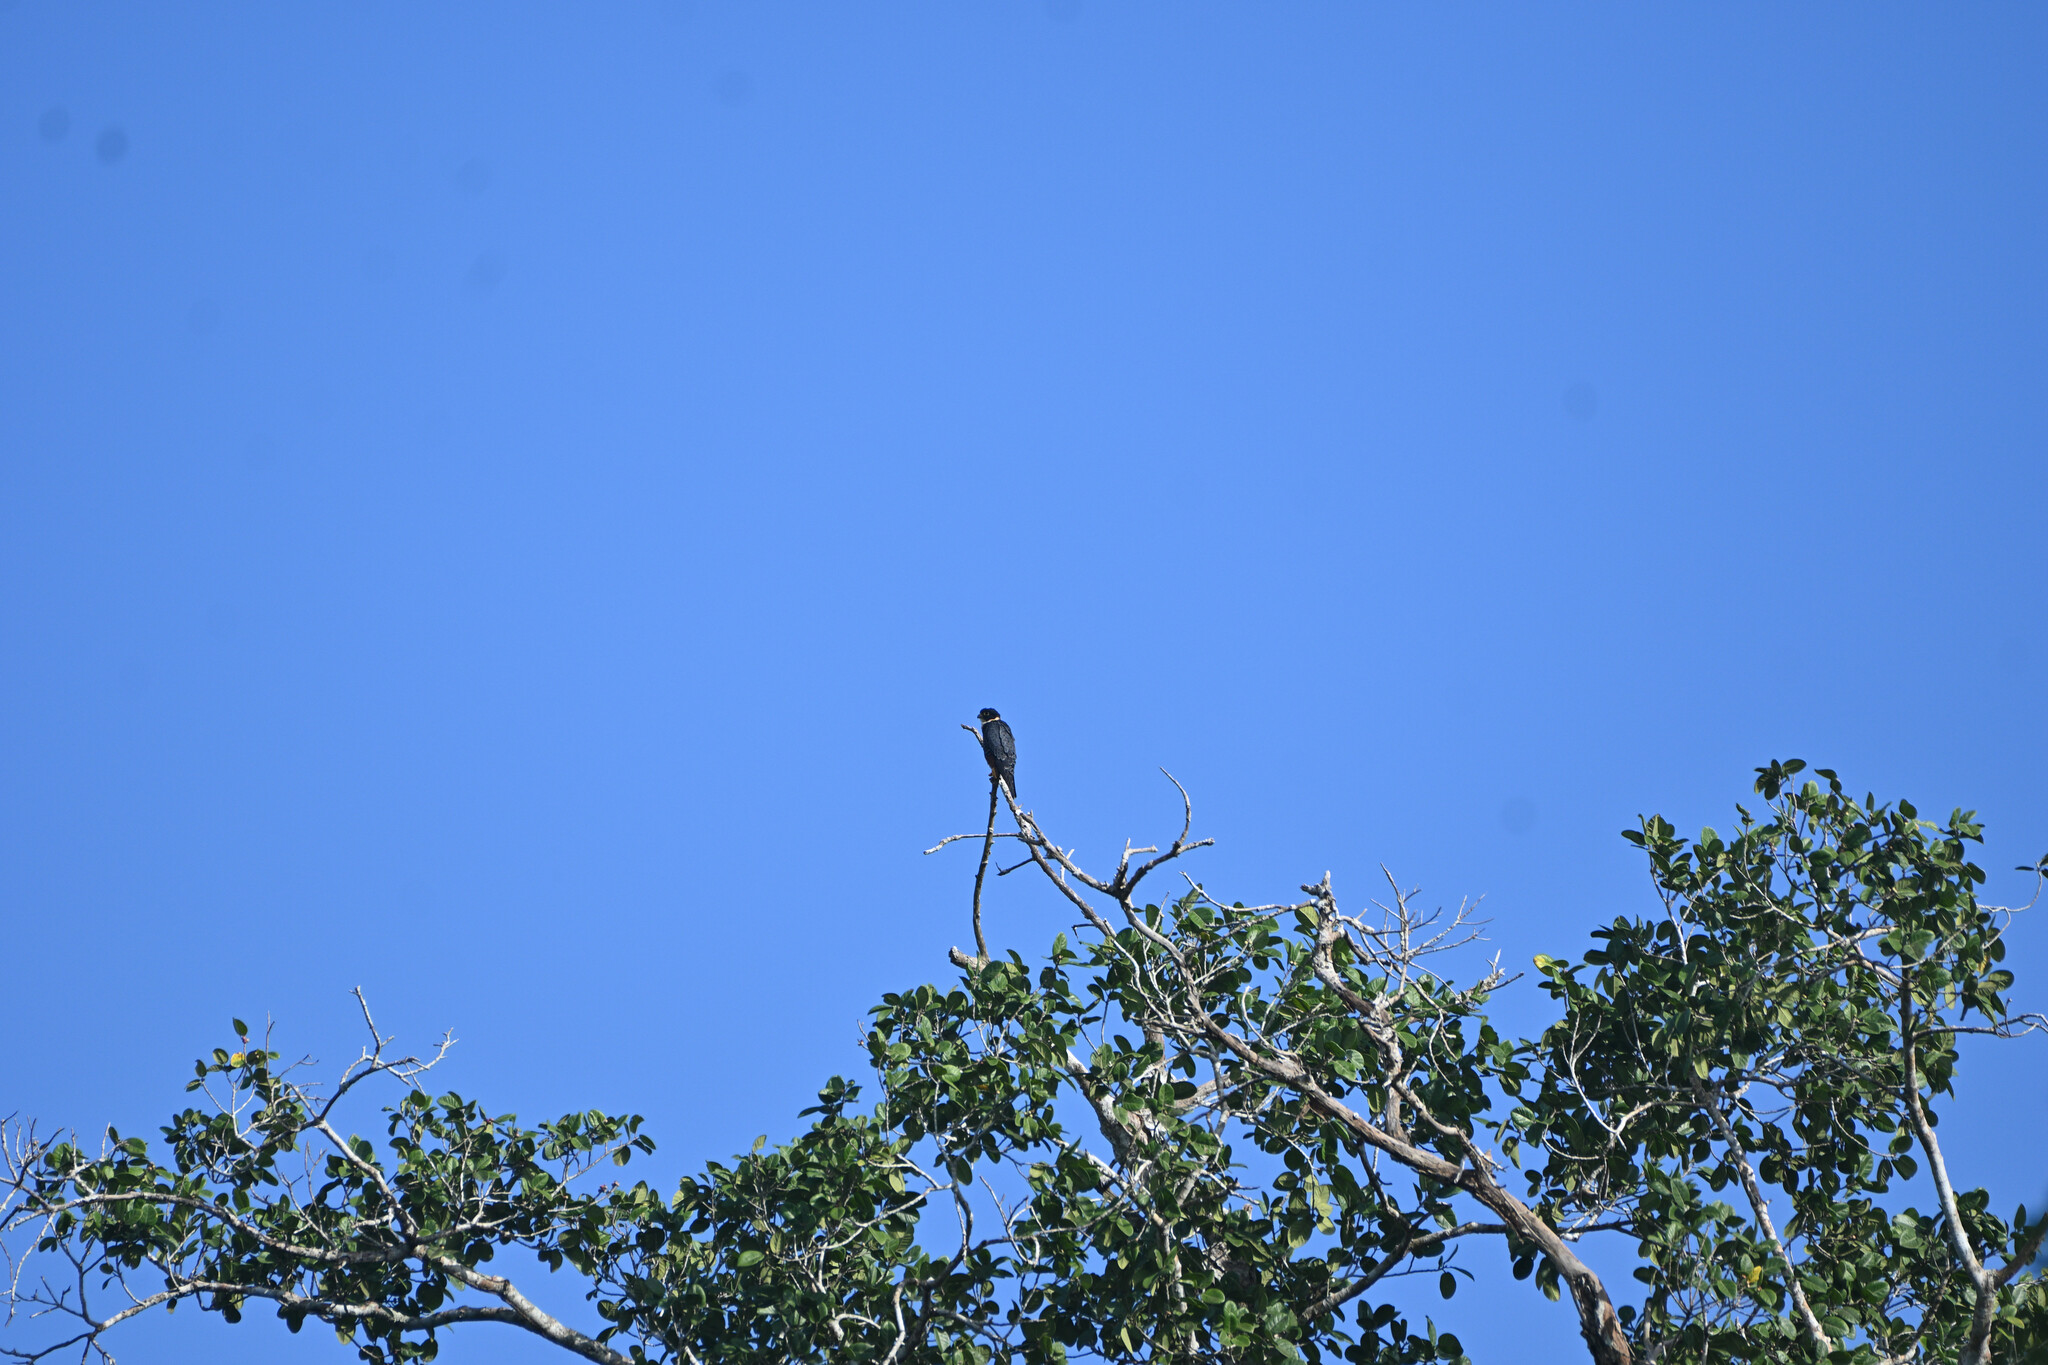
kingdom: Animalia
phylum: Chordata
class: Aves
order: Falconiformes
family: Falconidae
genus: Falco
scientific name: Falco rufigularis
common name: Bat falcon
